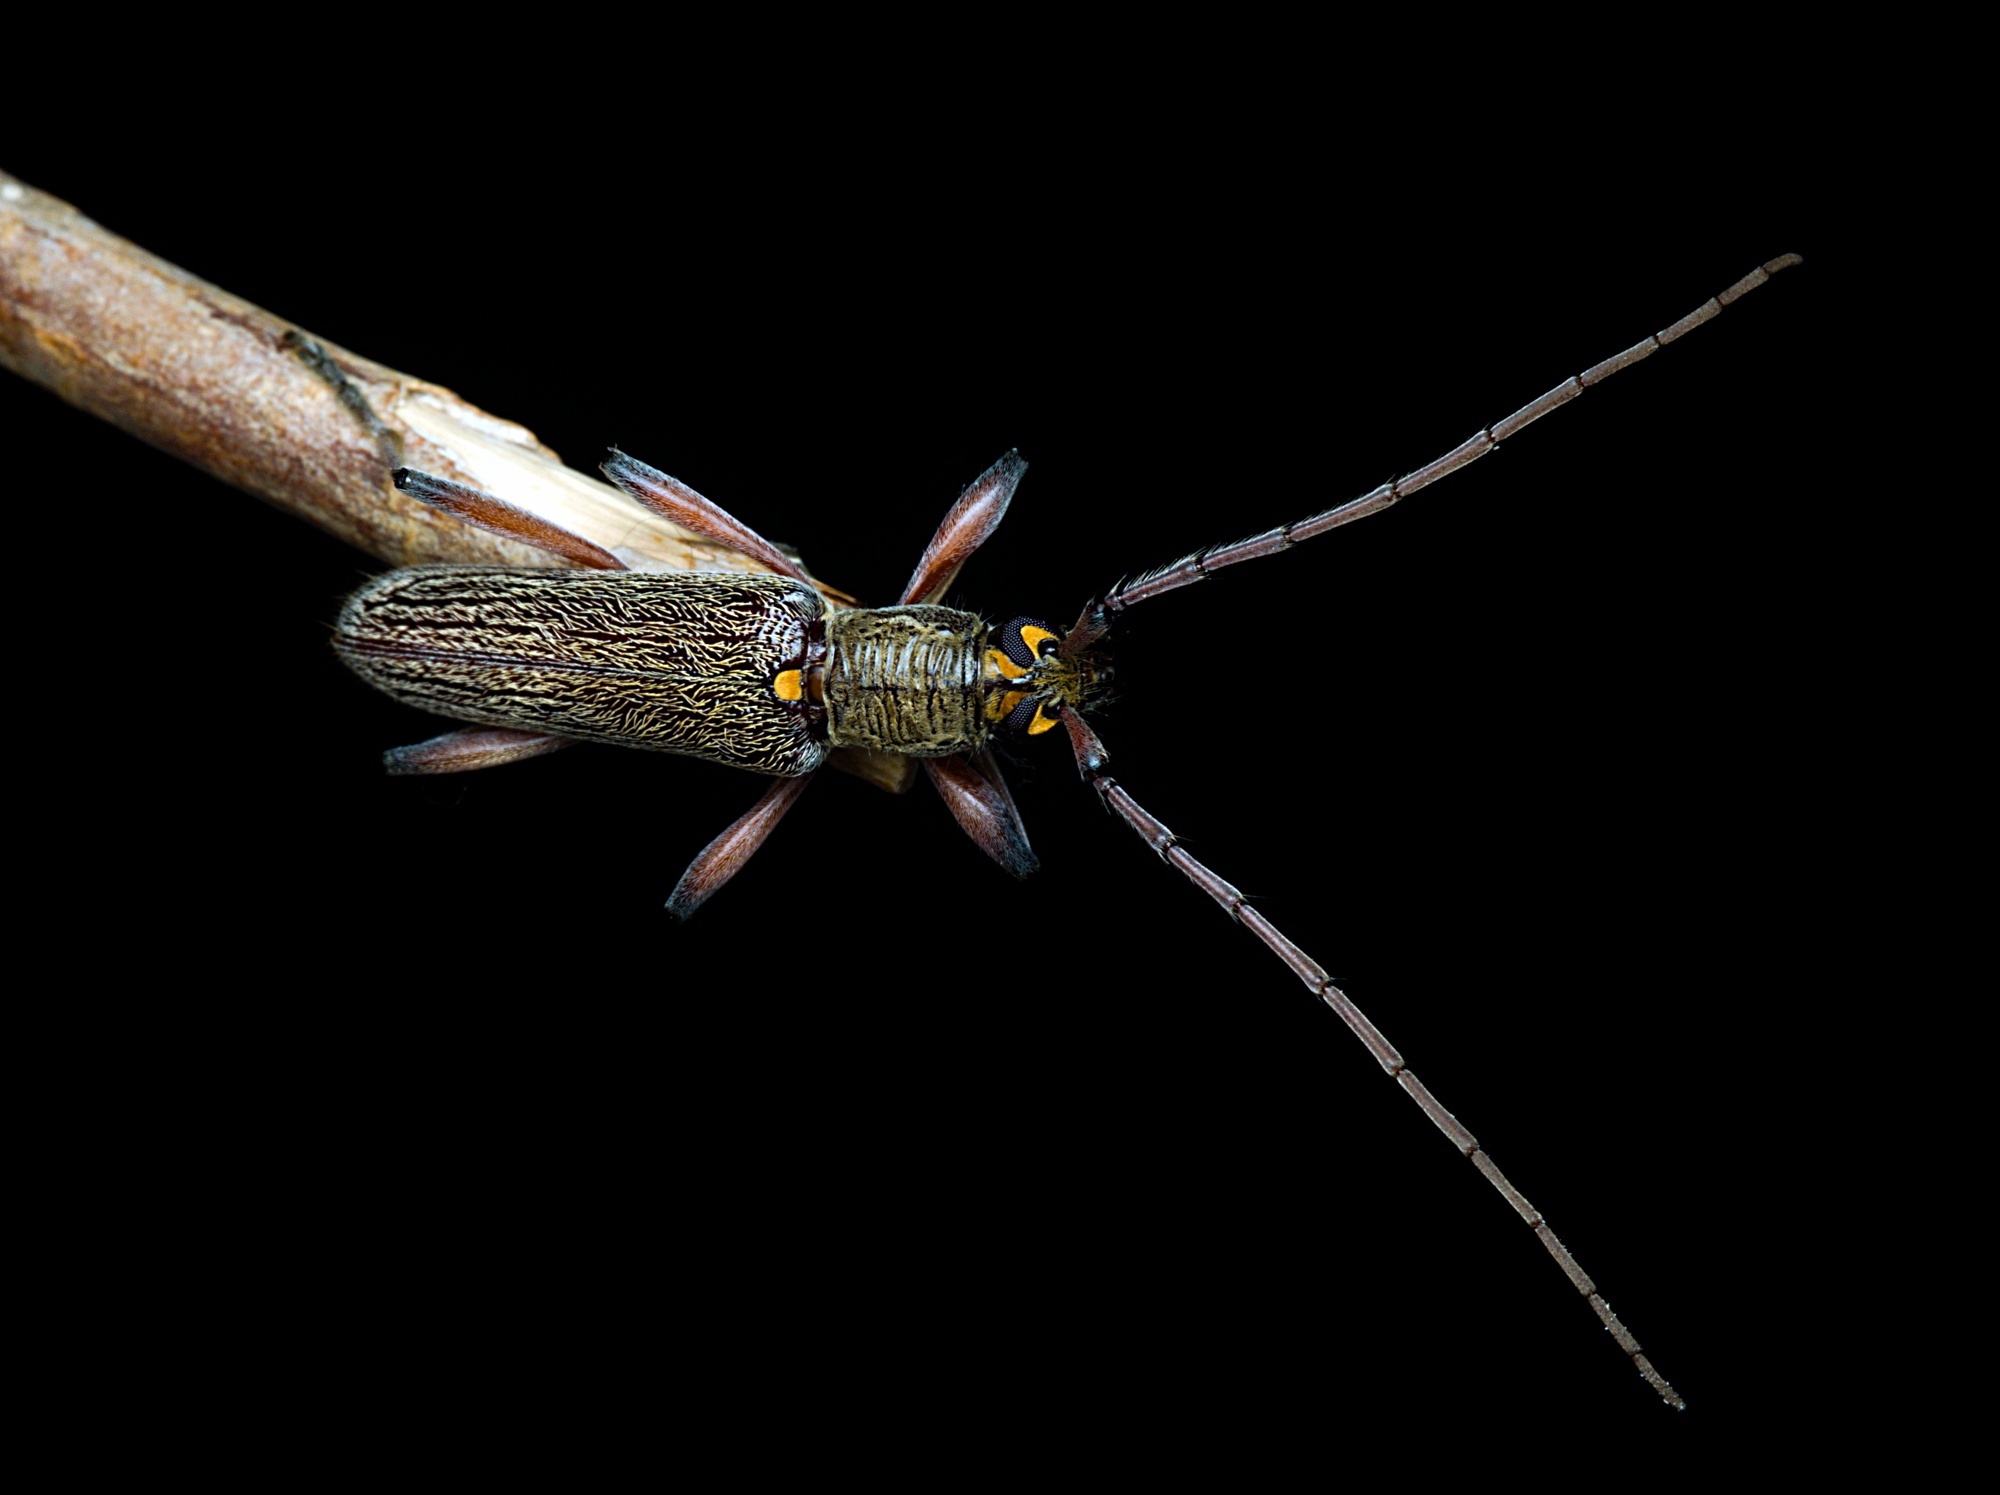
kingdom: Animalia
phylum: Arthropoda
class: Insecta
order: Coleoptera
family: Cerambycidae
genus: Oemona
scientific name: Oemona hirta
